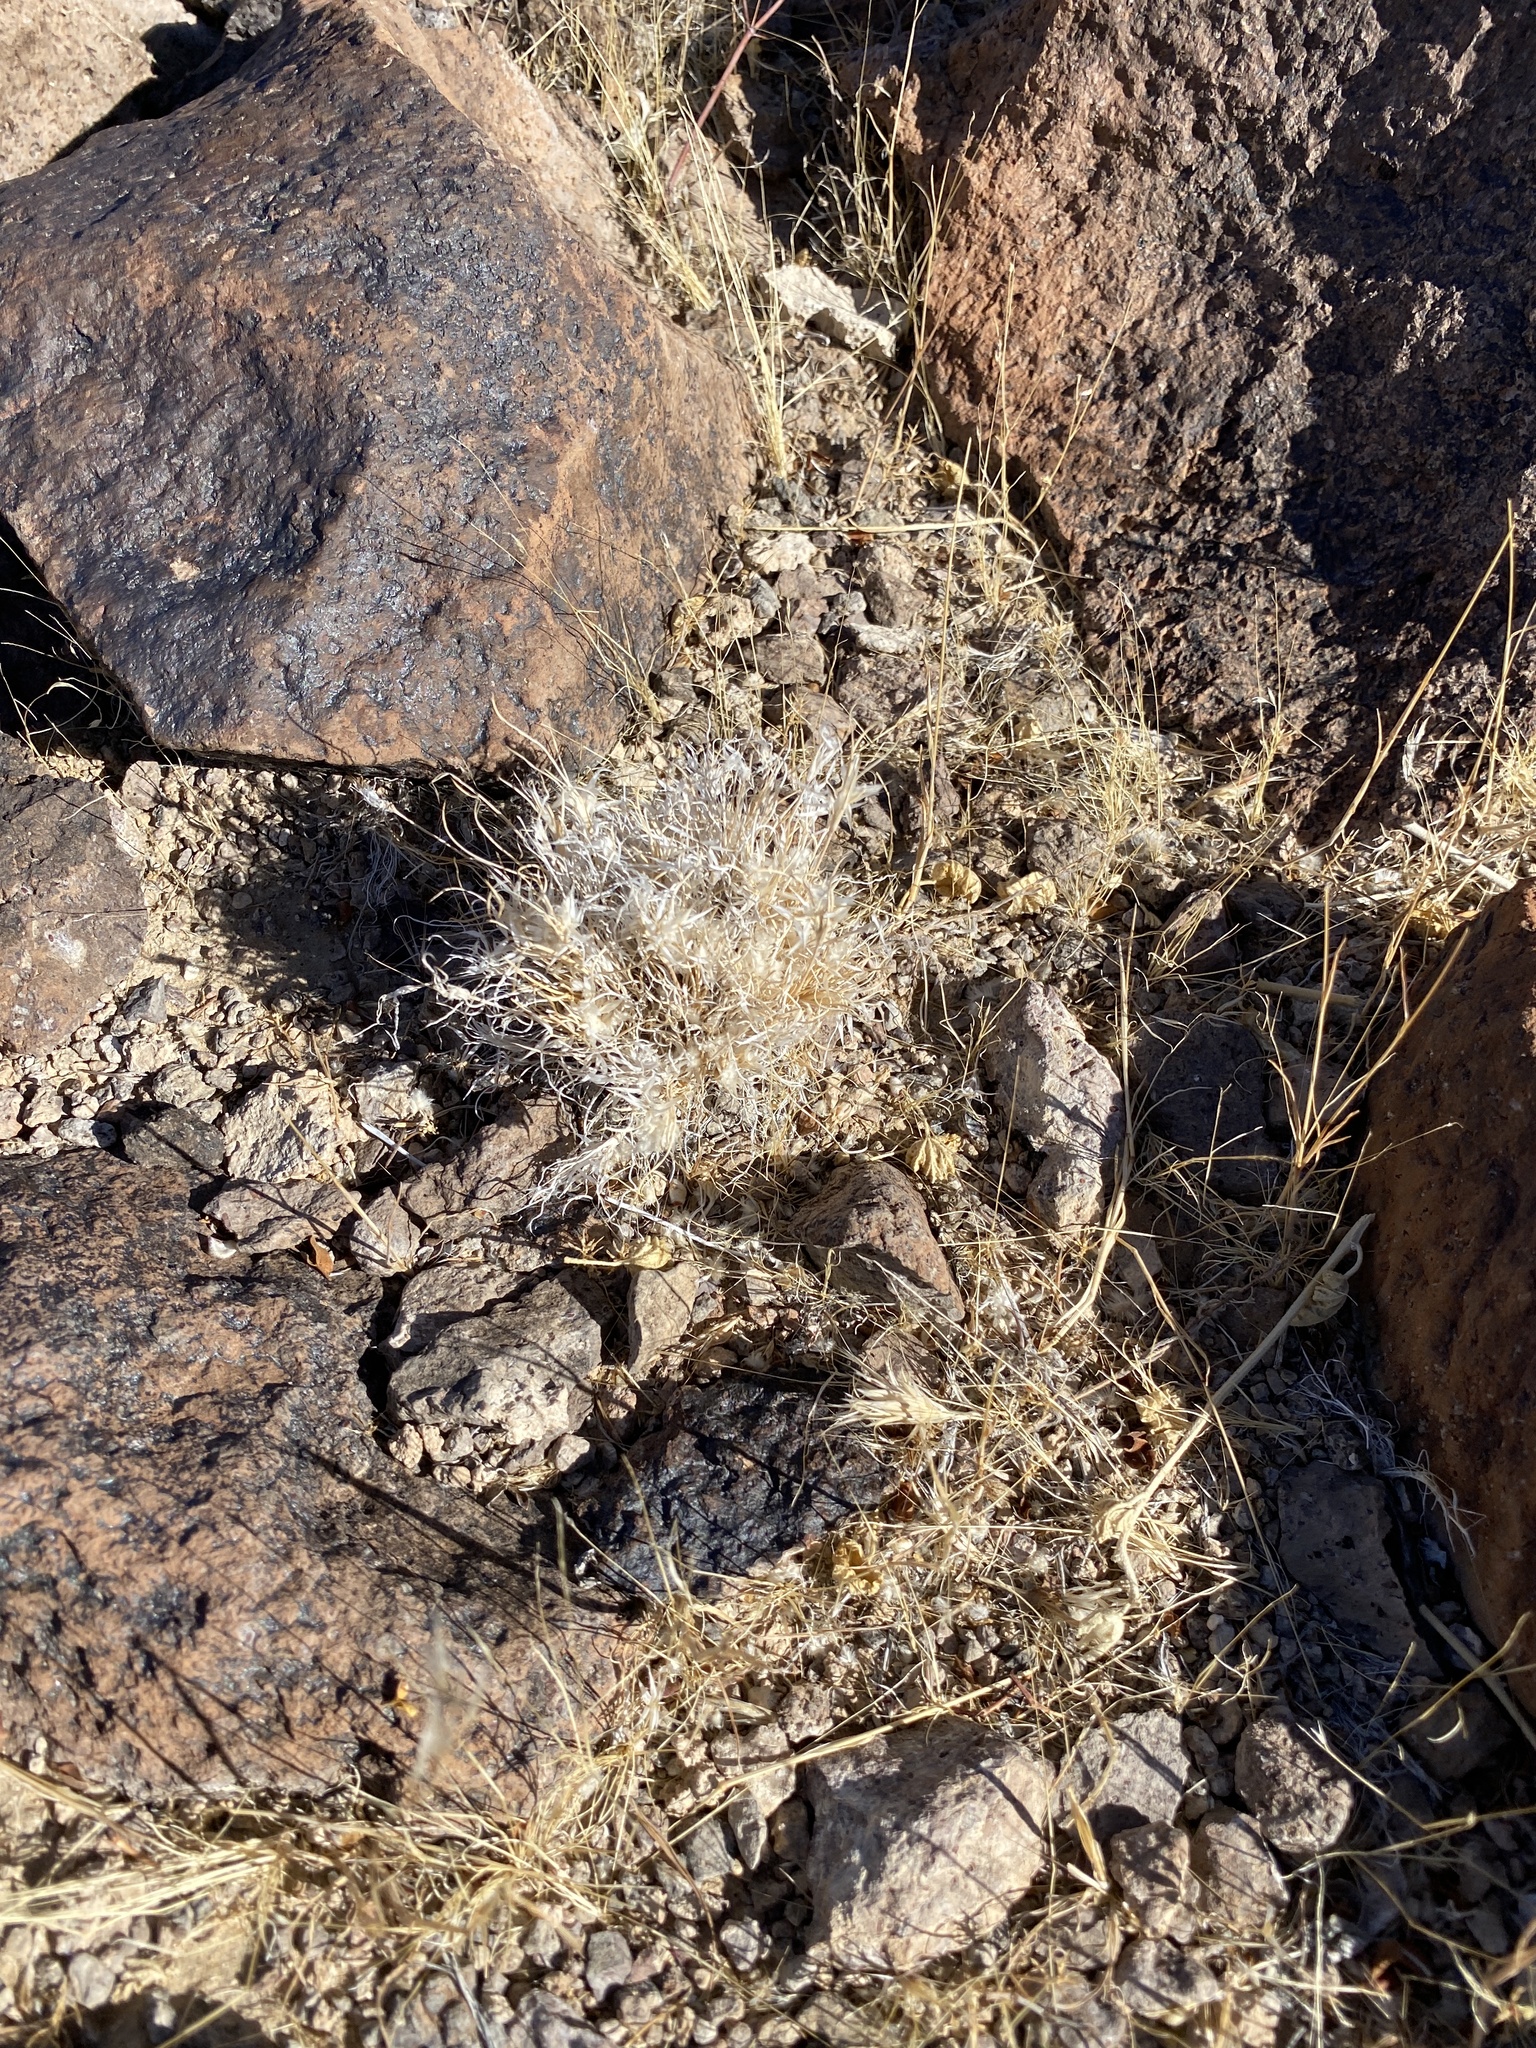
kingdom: Plantae
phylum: Tracheophyta
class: Liliopsida
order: Poales
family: Poaceae
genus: Dasyochloa
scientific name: Dasyochloa pulchella
